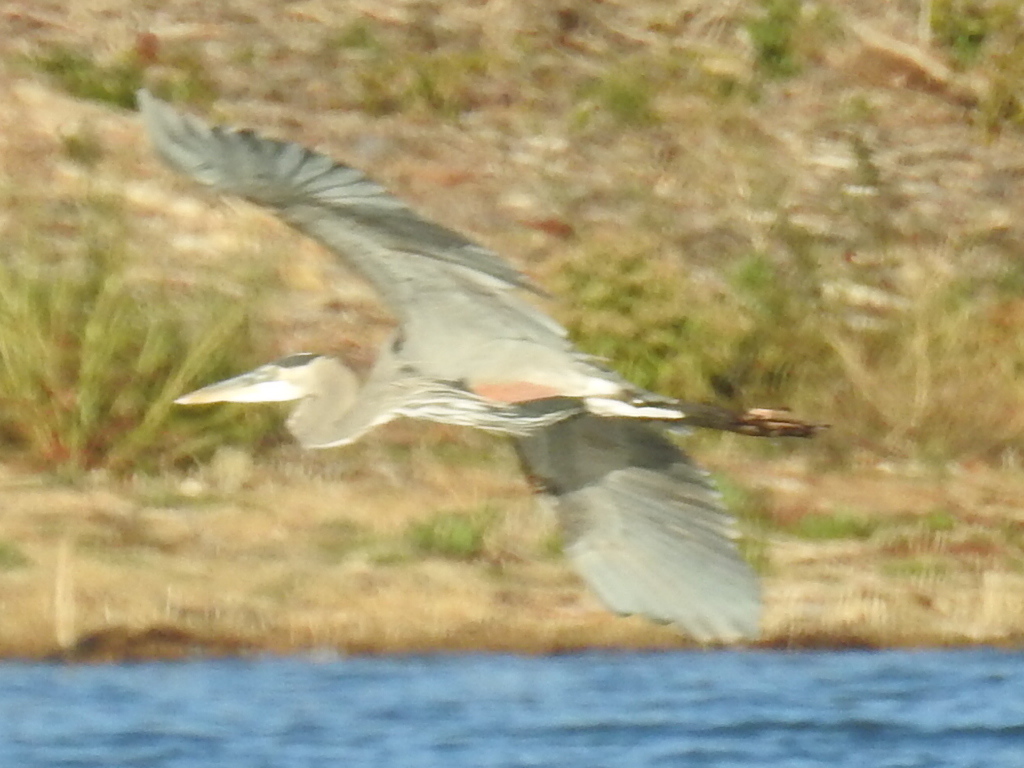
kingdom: Animalia
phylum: Chordata
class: Aves
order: Pelecaniformes
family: Ardeidae
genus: Ardea
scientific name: Ardea herodias
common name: Great blue heron
